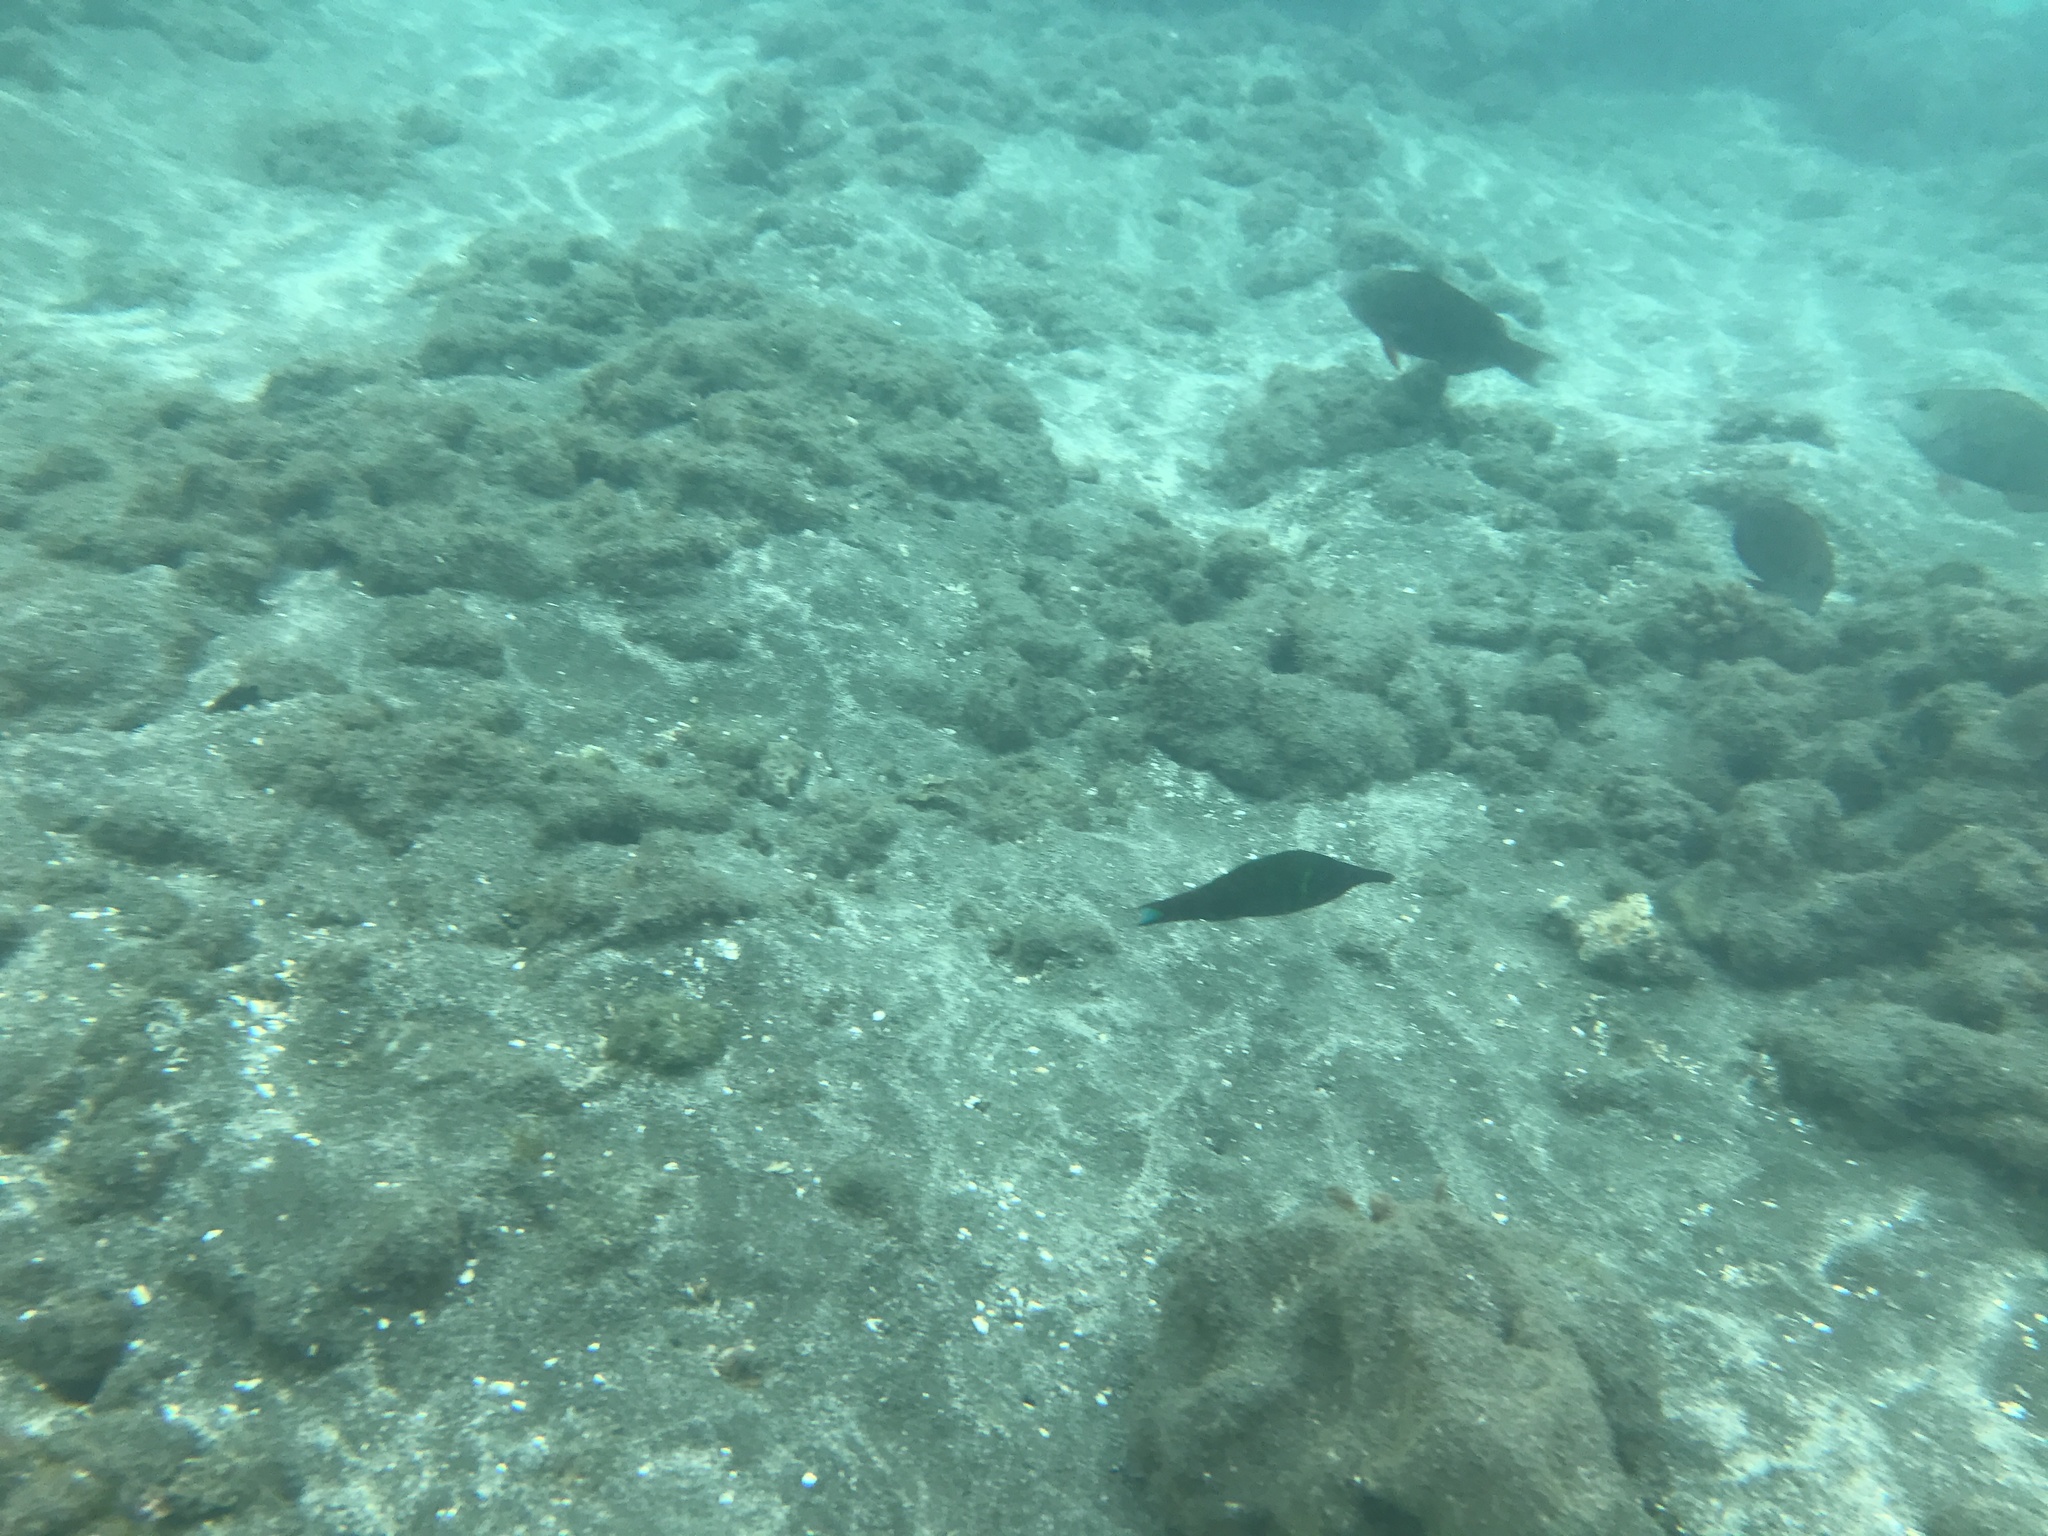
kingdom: Animalia
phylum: Chordata
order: Perciformes
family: Labridae
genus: Gomphosus
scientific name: Gomphosus varius
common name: Bird wrasse
